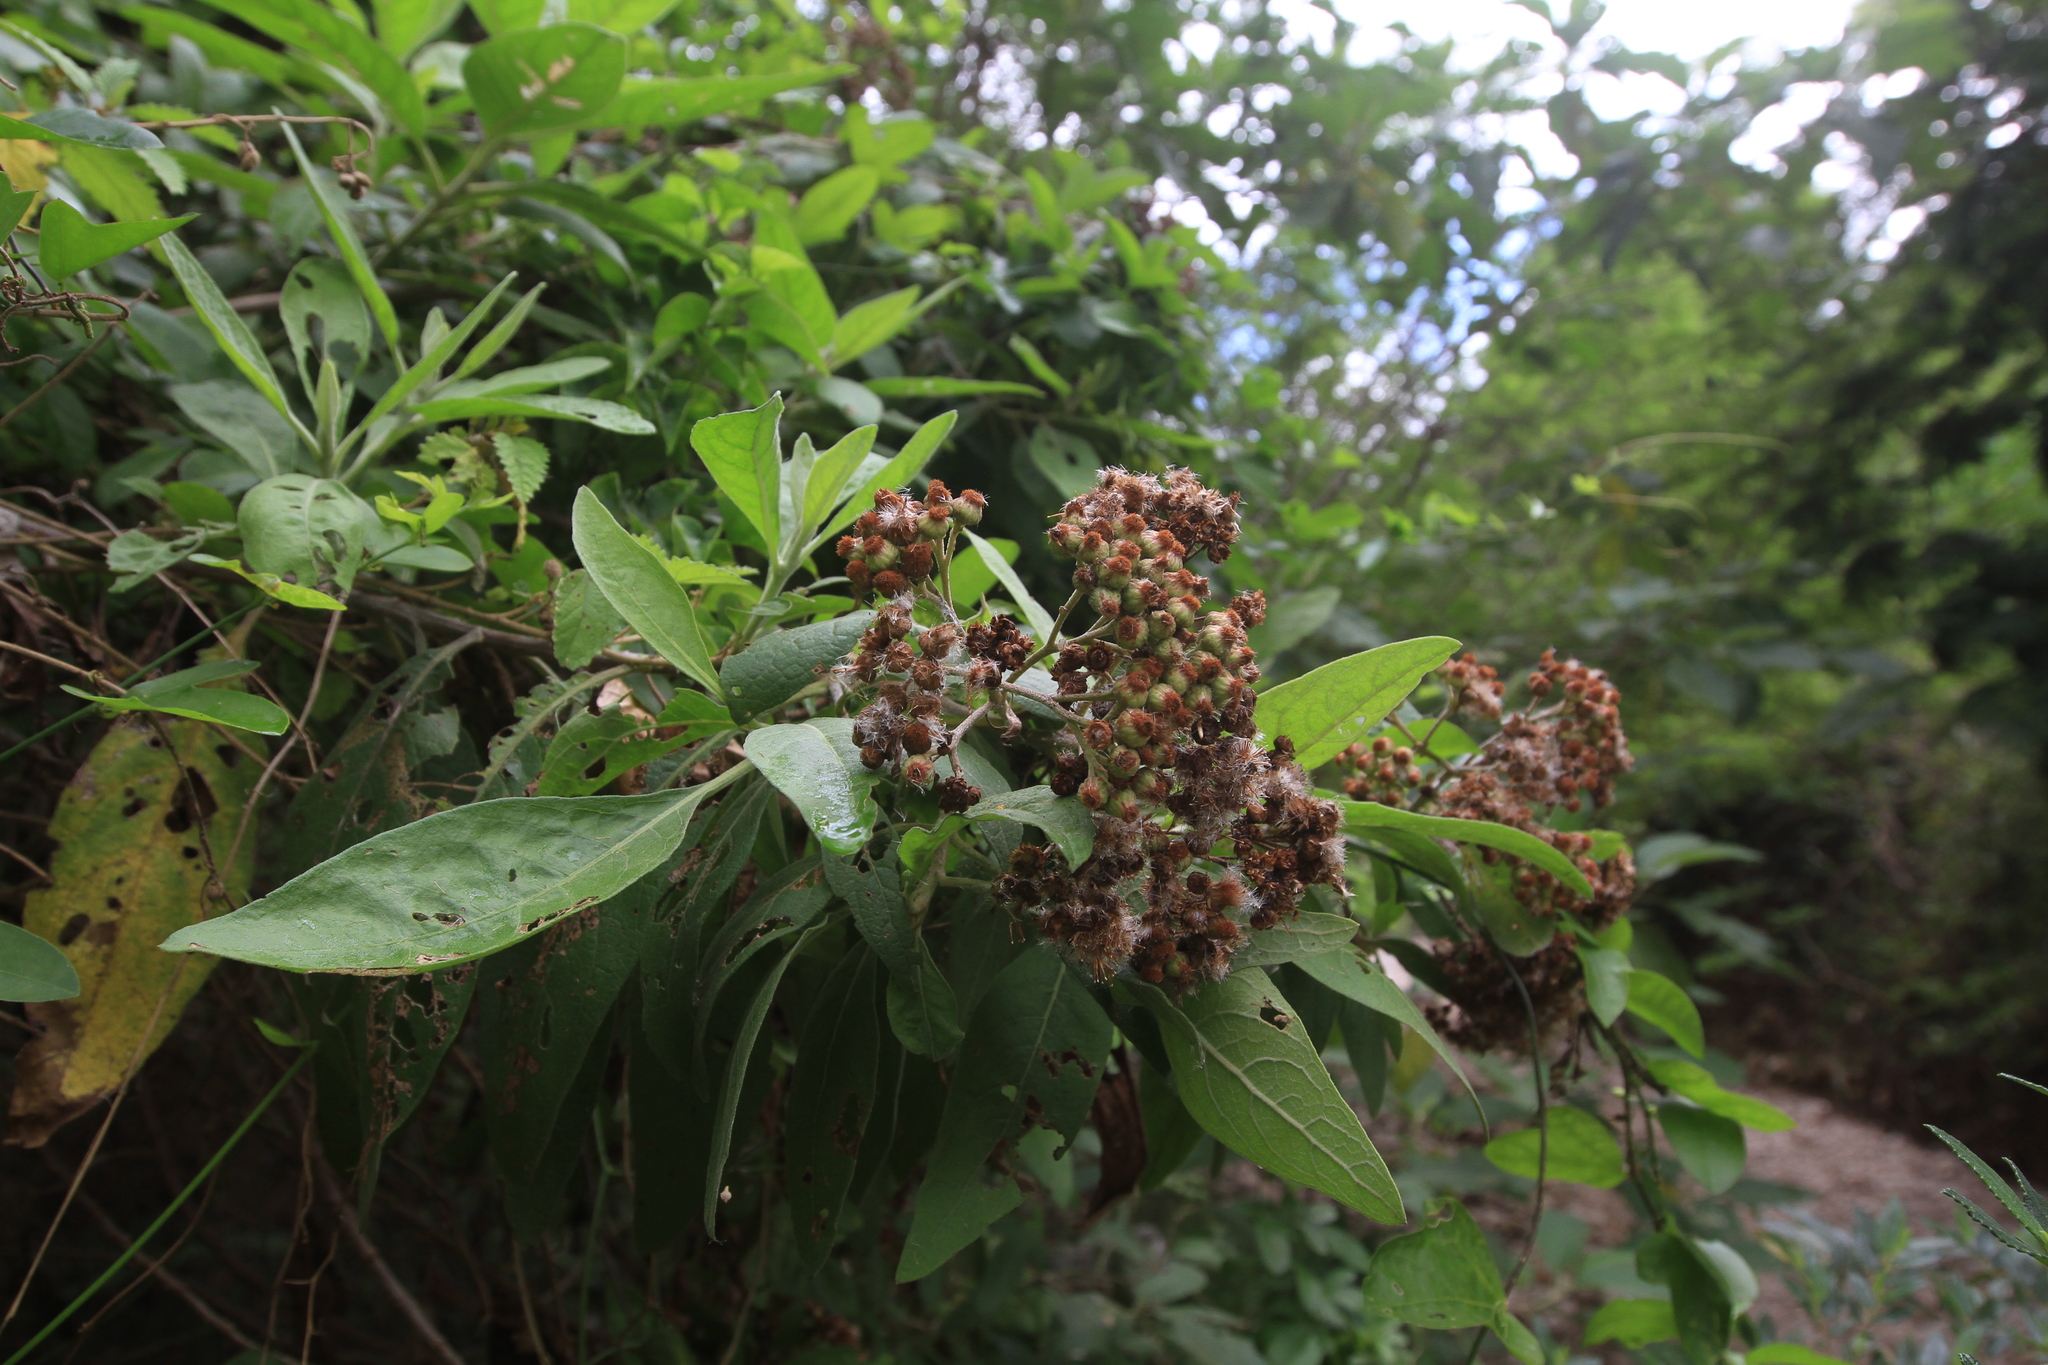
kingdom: Plantae
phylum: Tracheophyta
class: Magnoliopsida
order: Asterales
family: Asteraceae
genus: Pluchea
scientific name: Pluchea carolinensis
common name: Marsh fleabane
